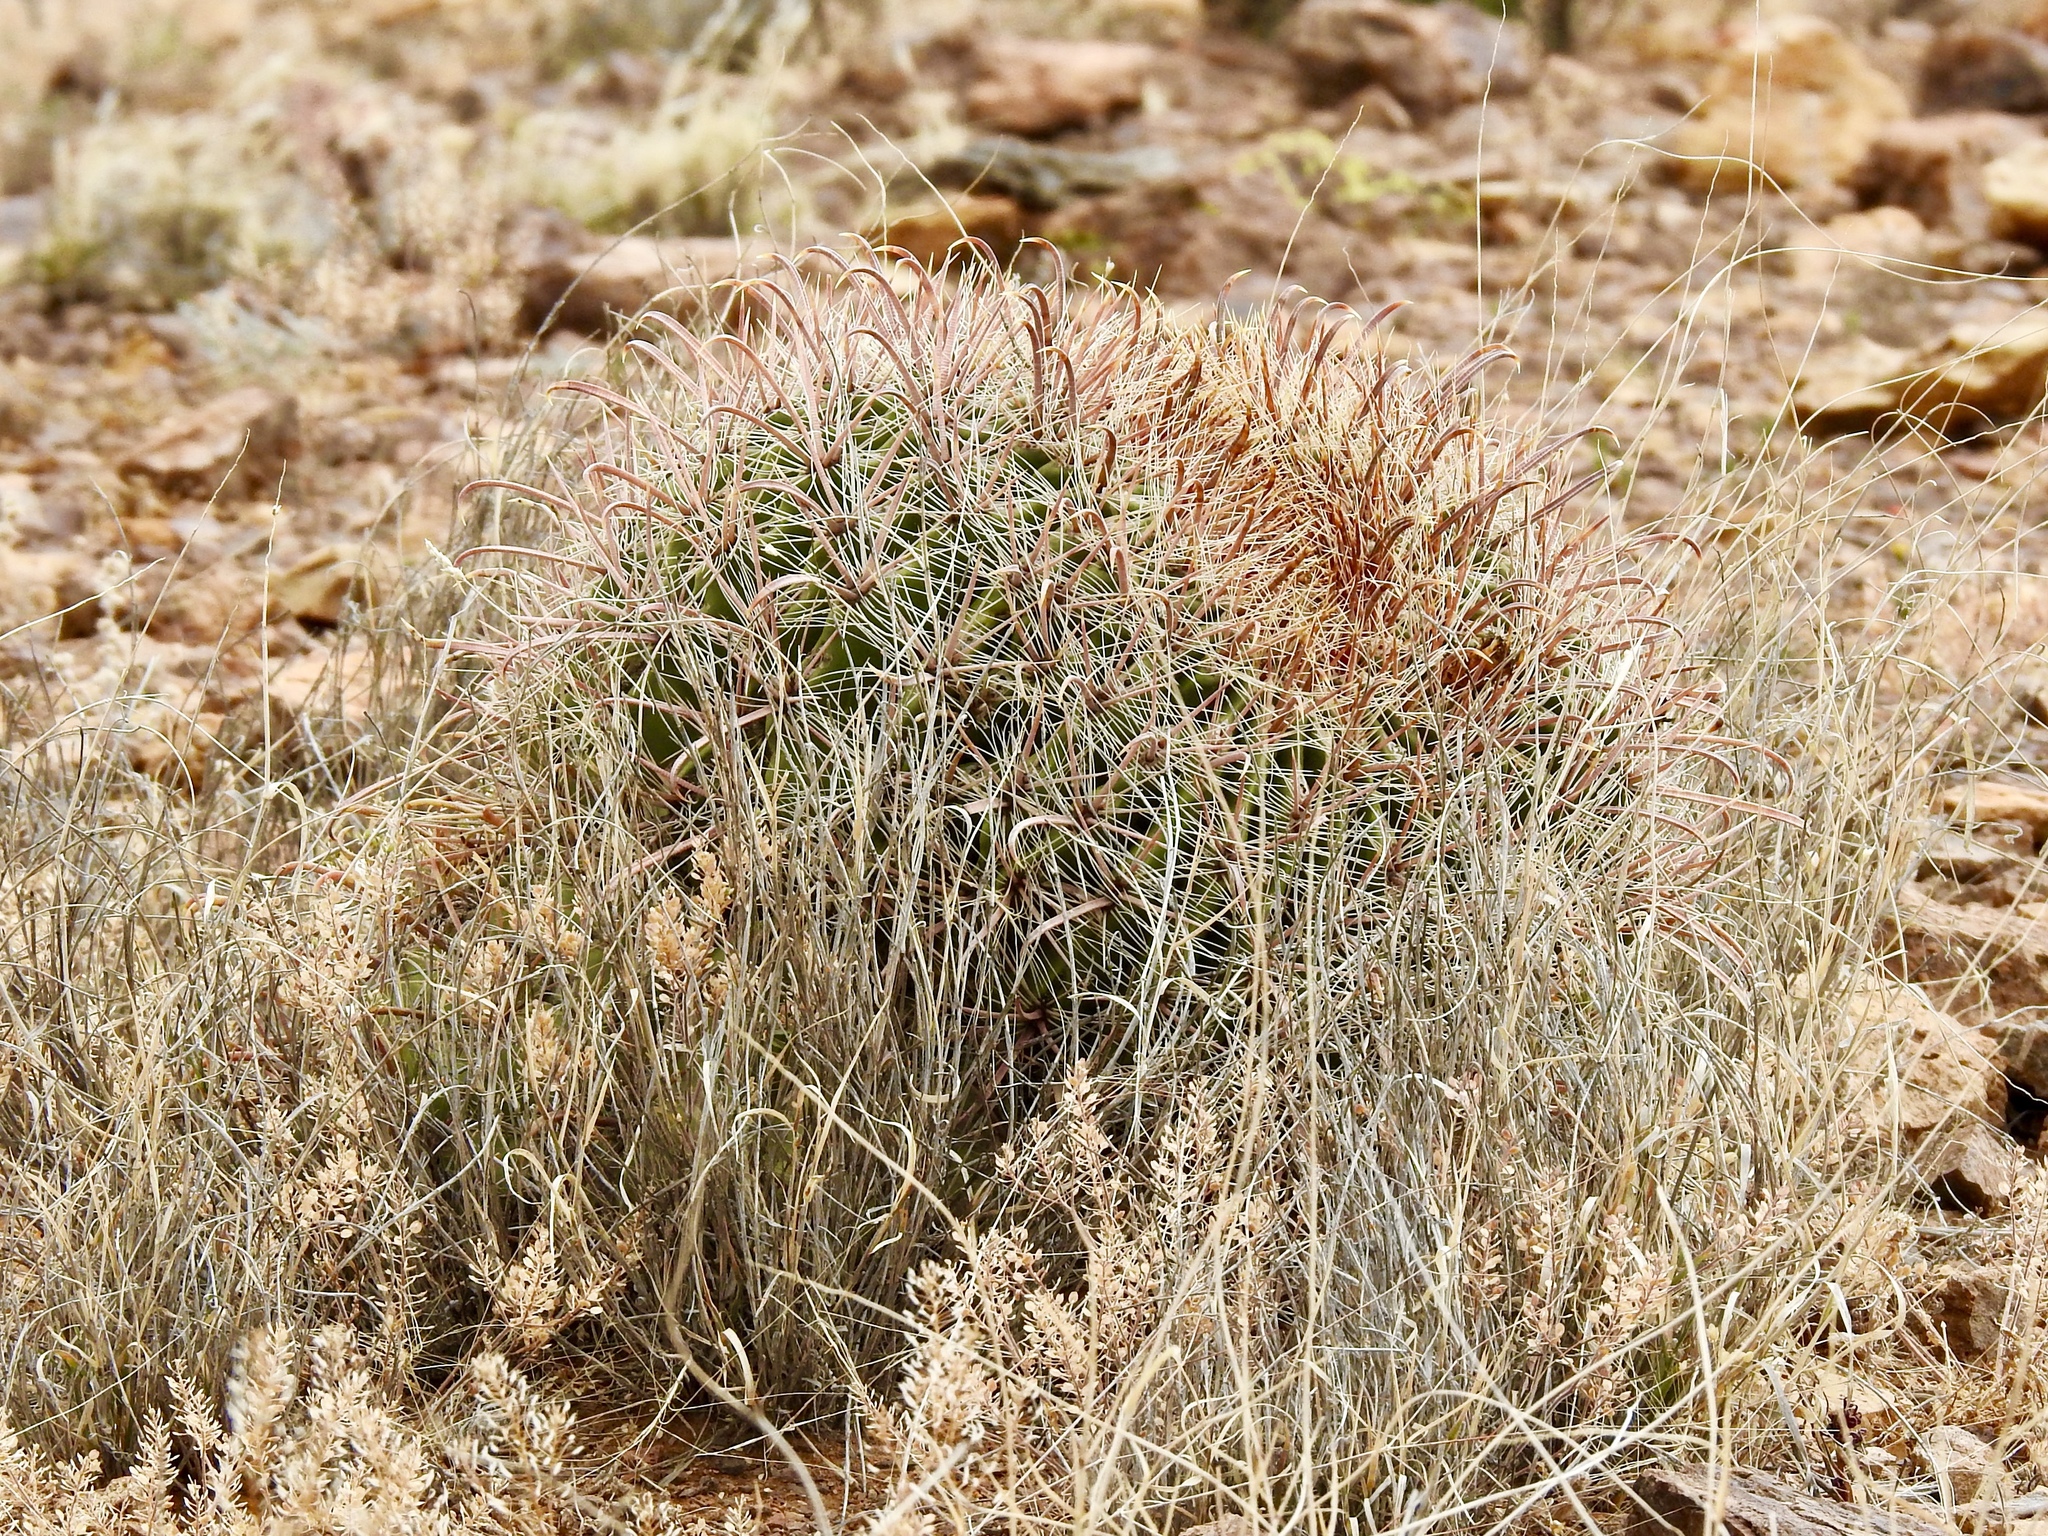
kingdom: Plantae
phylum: Tracheophyta
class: Magnoliopsida
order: Caryophyllales
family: Cactaceae
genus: Ferocactus
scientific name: Ferocactus wislizeni
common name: Candy barrel cactus
